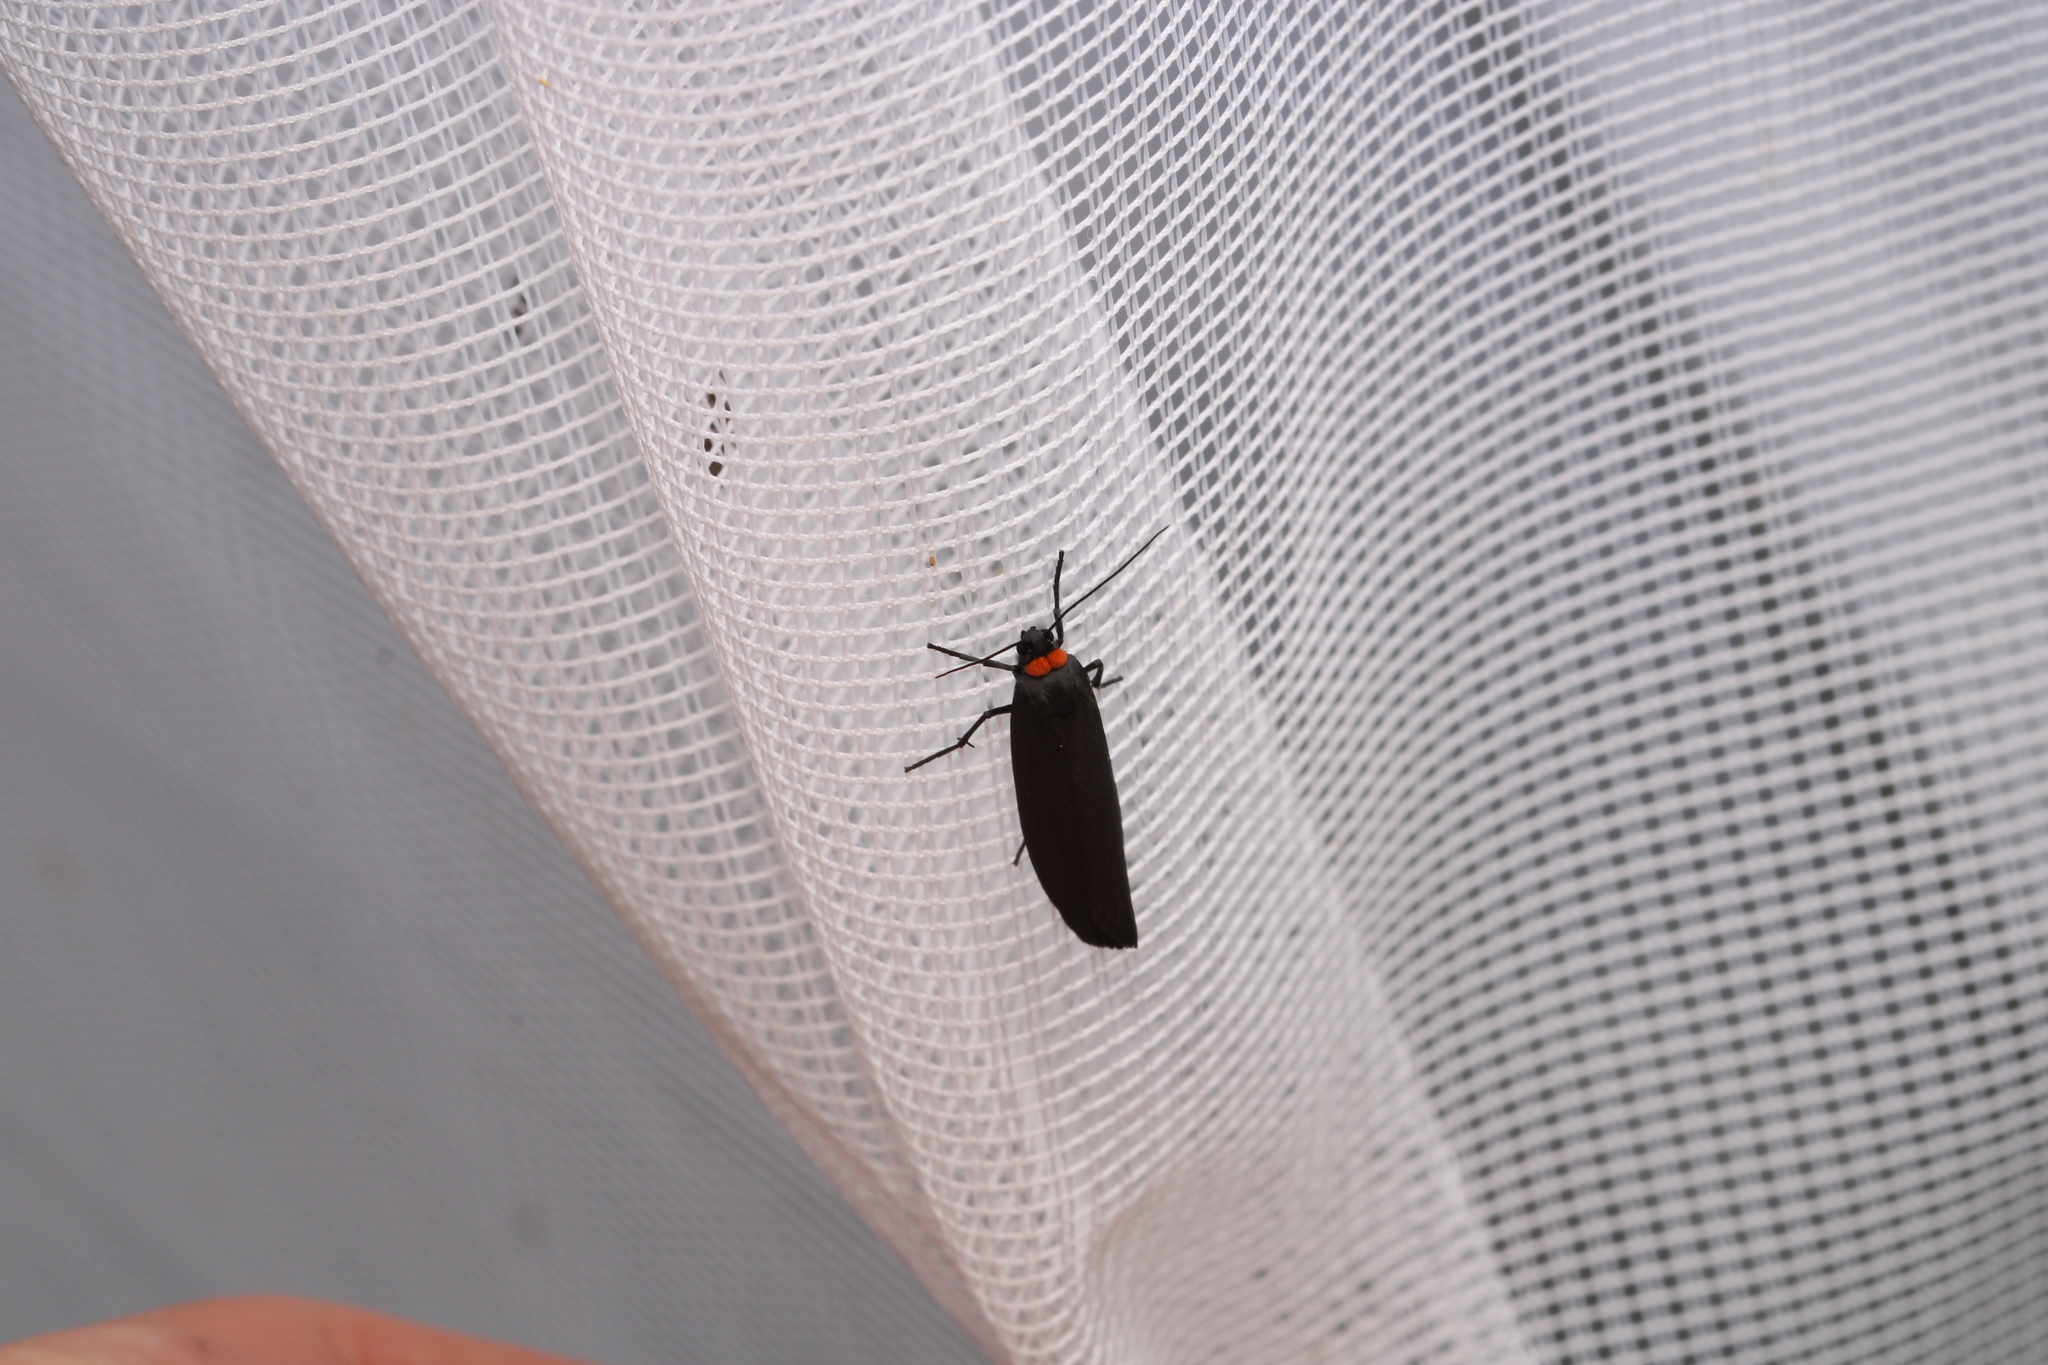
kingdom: Animalia
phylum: Arthropoda
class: Insecta
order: Lepidoptera
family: Erebidae
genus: Atolmis
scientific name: Atolmis rubricollis
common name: Red-necked footman
